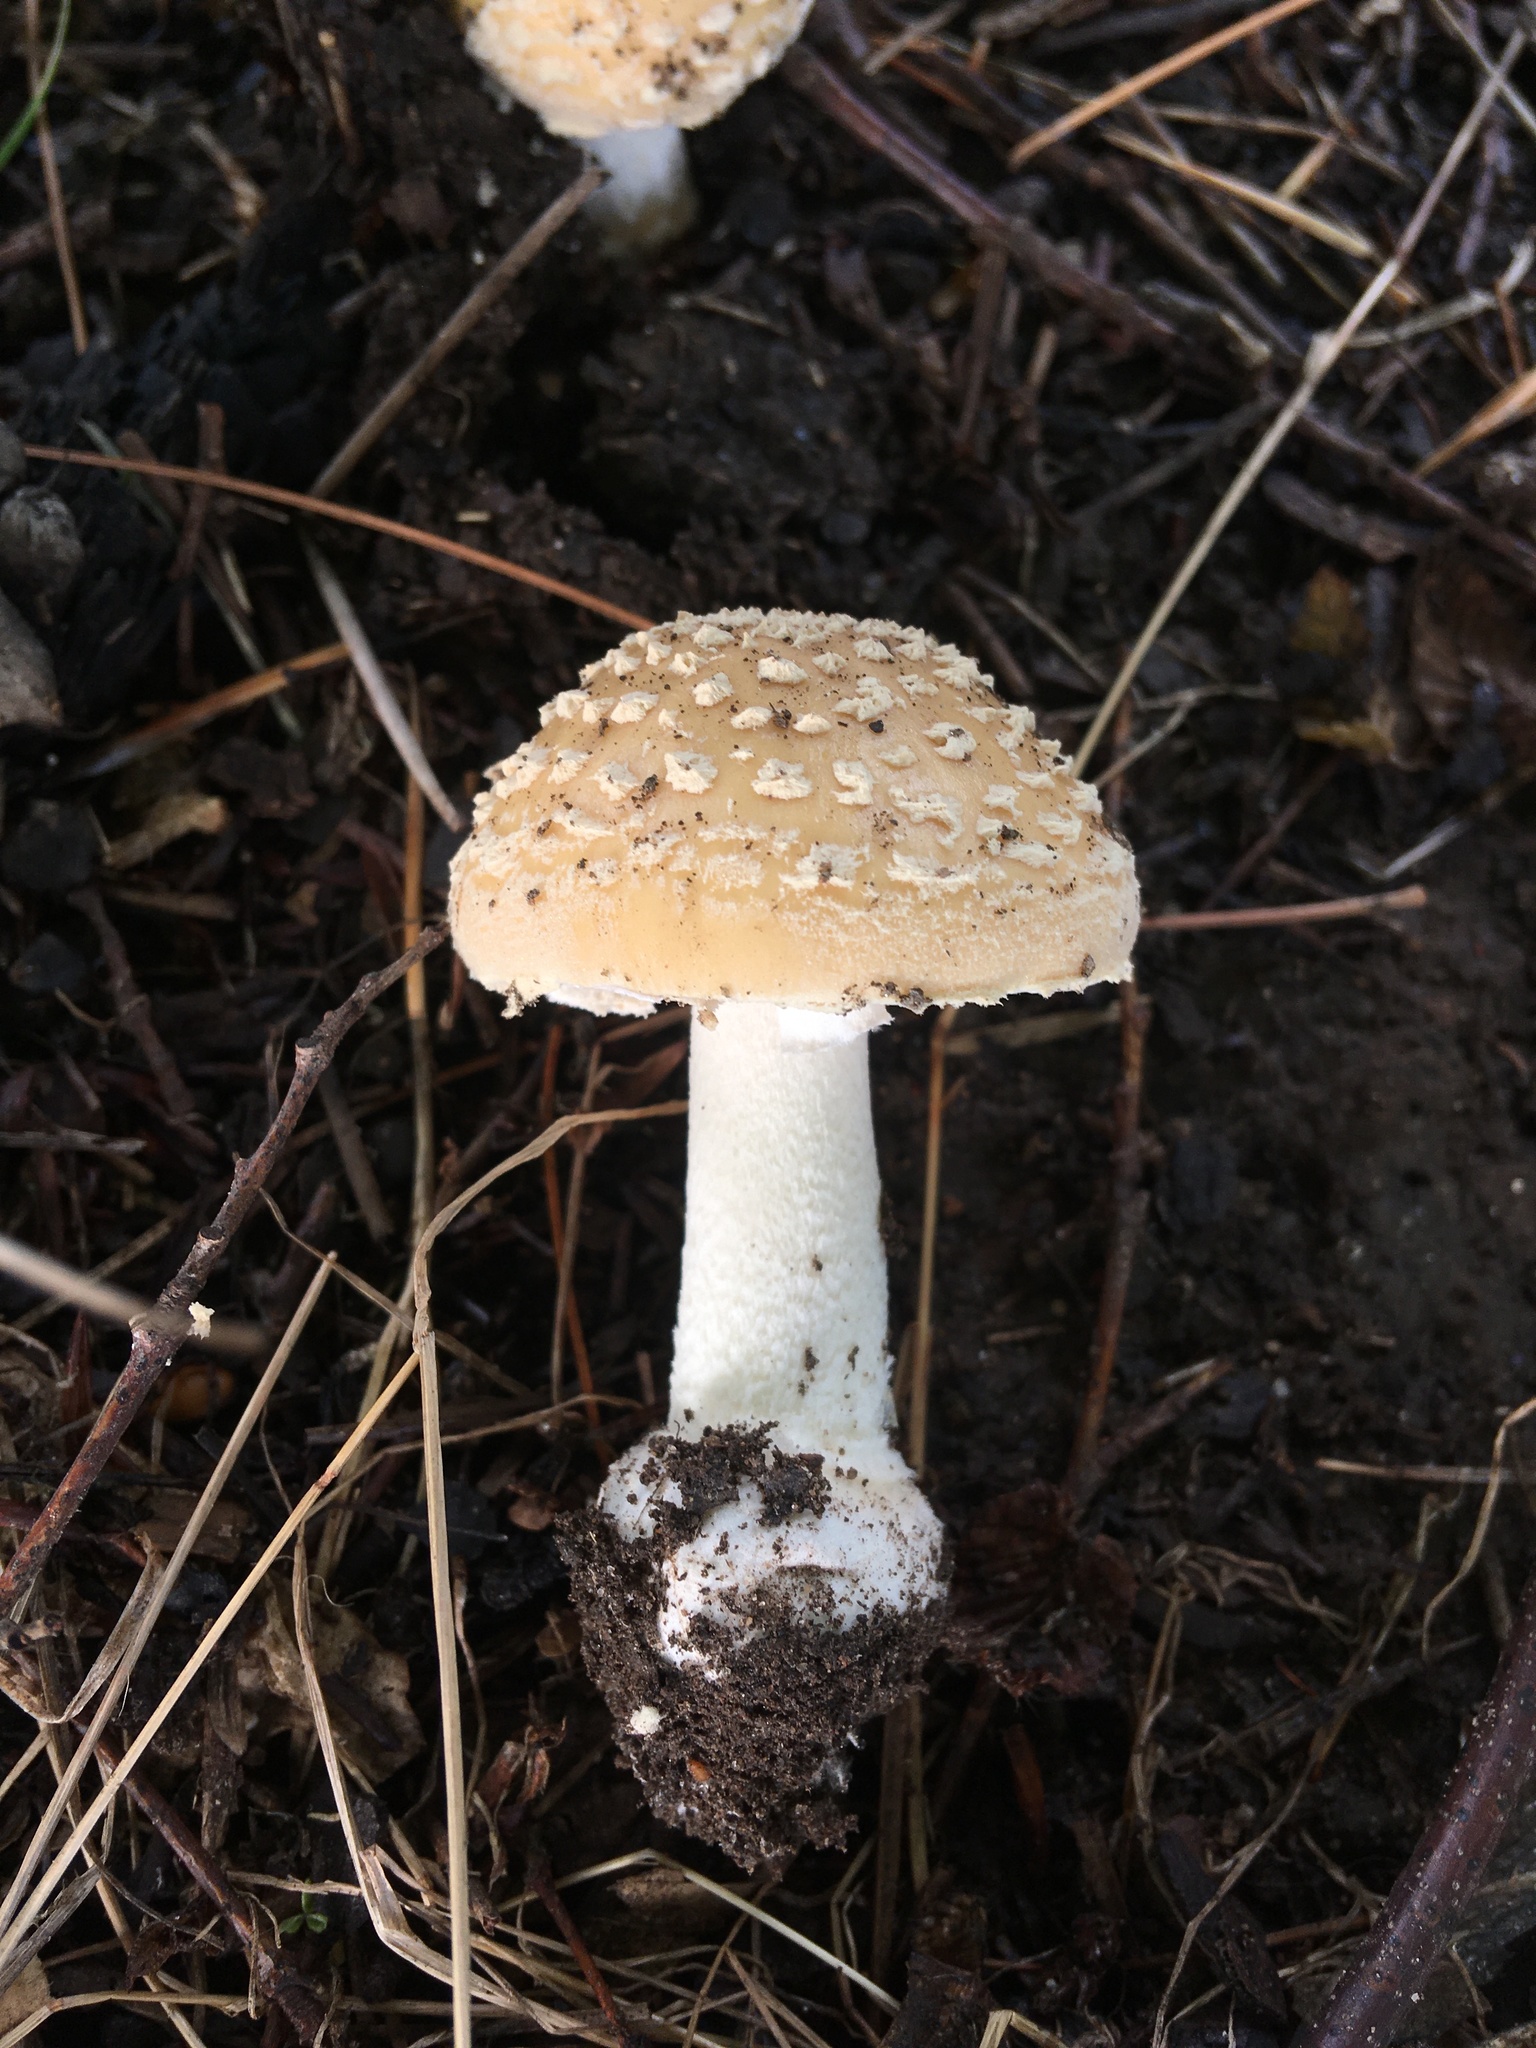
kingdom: Fungi
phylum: Basidiomycota
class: Agaricomycetes
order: Agaricales
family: Amanitaceae
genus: Amanita
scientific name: Amanita crenulata
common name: Poison champagne amanita
